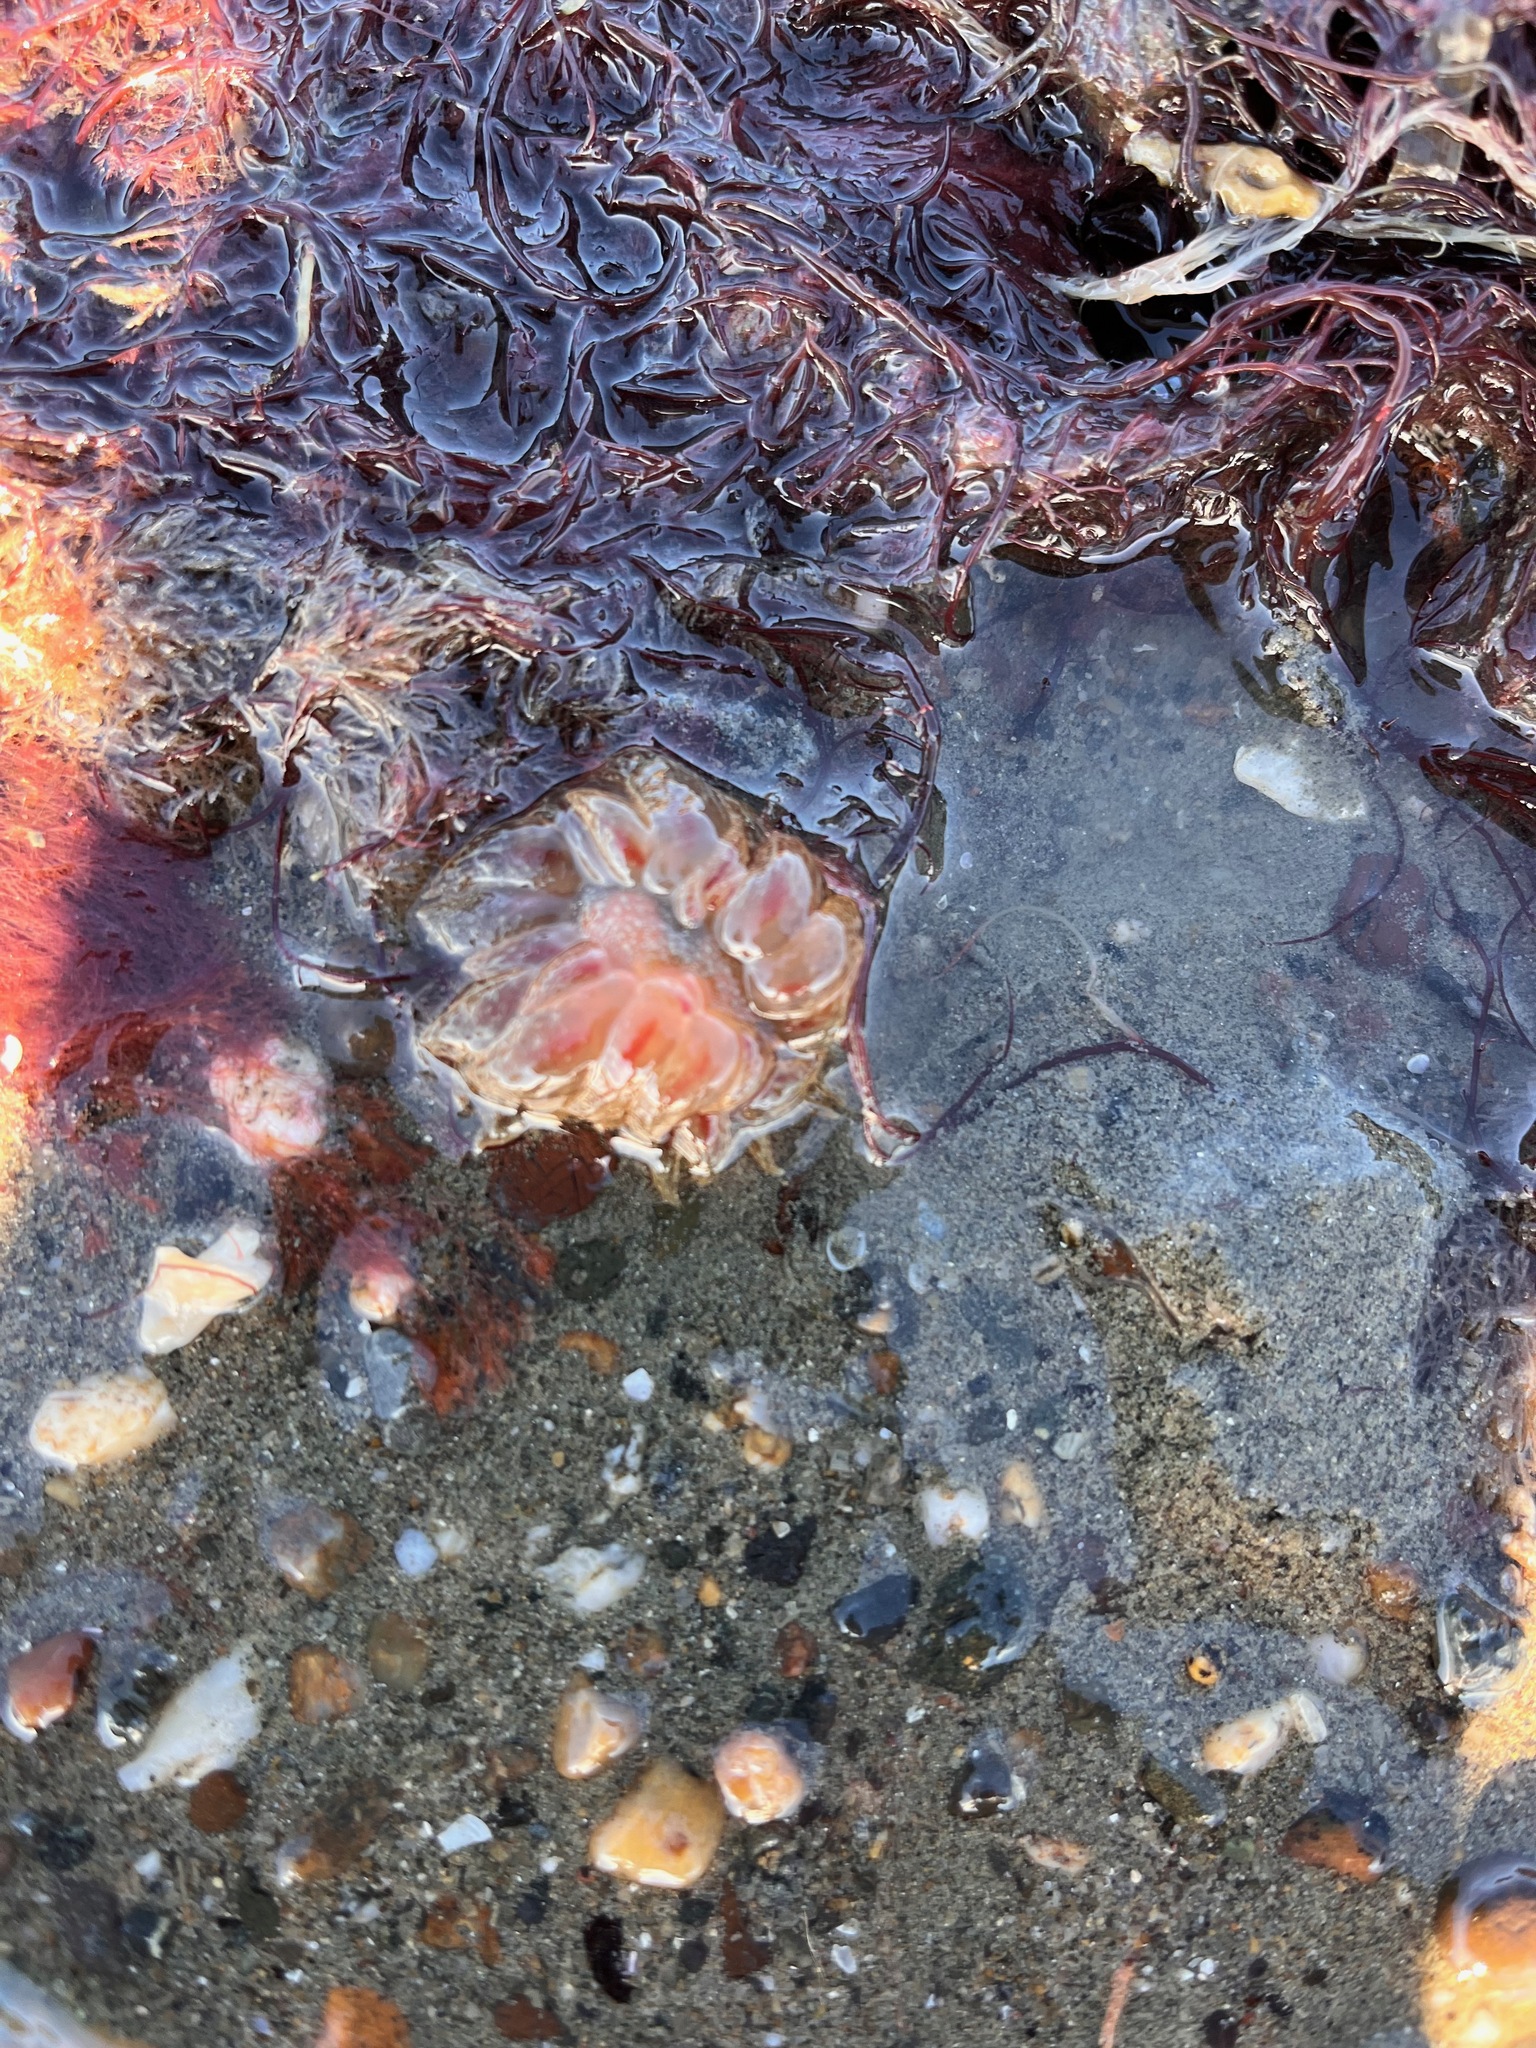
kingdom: Animalia
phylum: Mollusca
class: Gastropoda
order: Nudibranchia
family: Dironidae
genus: Dirona
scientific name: Dirona picta
